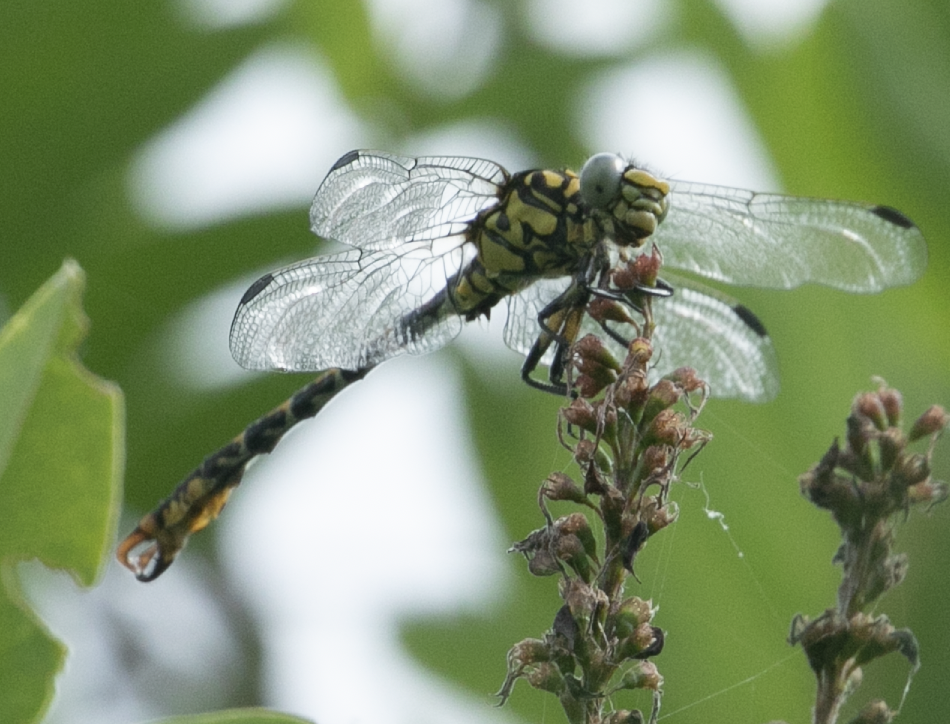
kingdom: Animalia
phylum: Arthropoda
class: Insecta
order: Odonata
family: Gomphidae
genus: Onychogomphus
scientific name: Onychogomphus forcipatus
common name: Small pincertail
